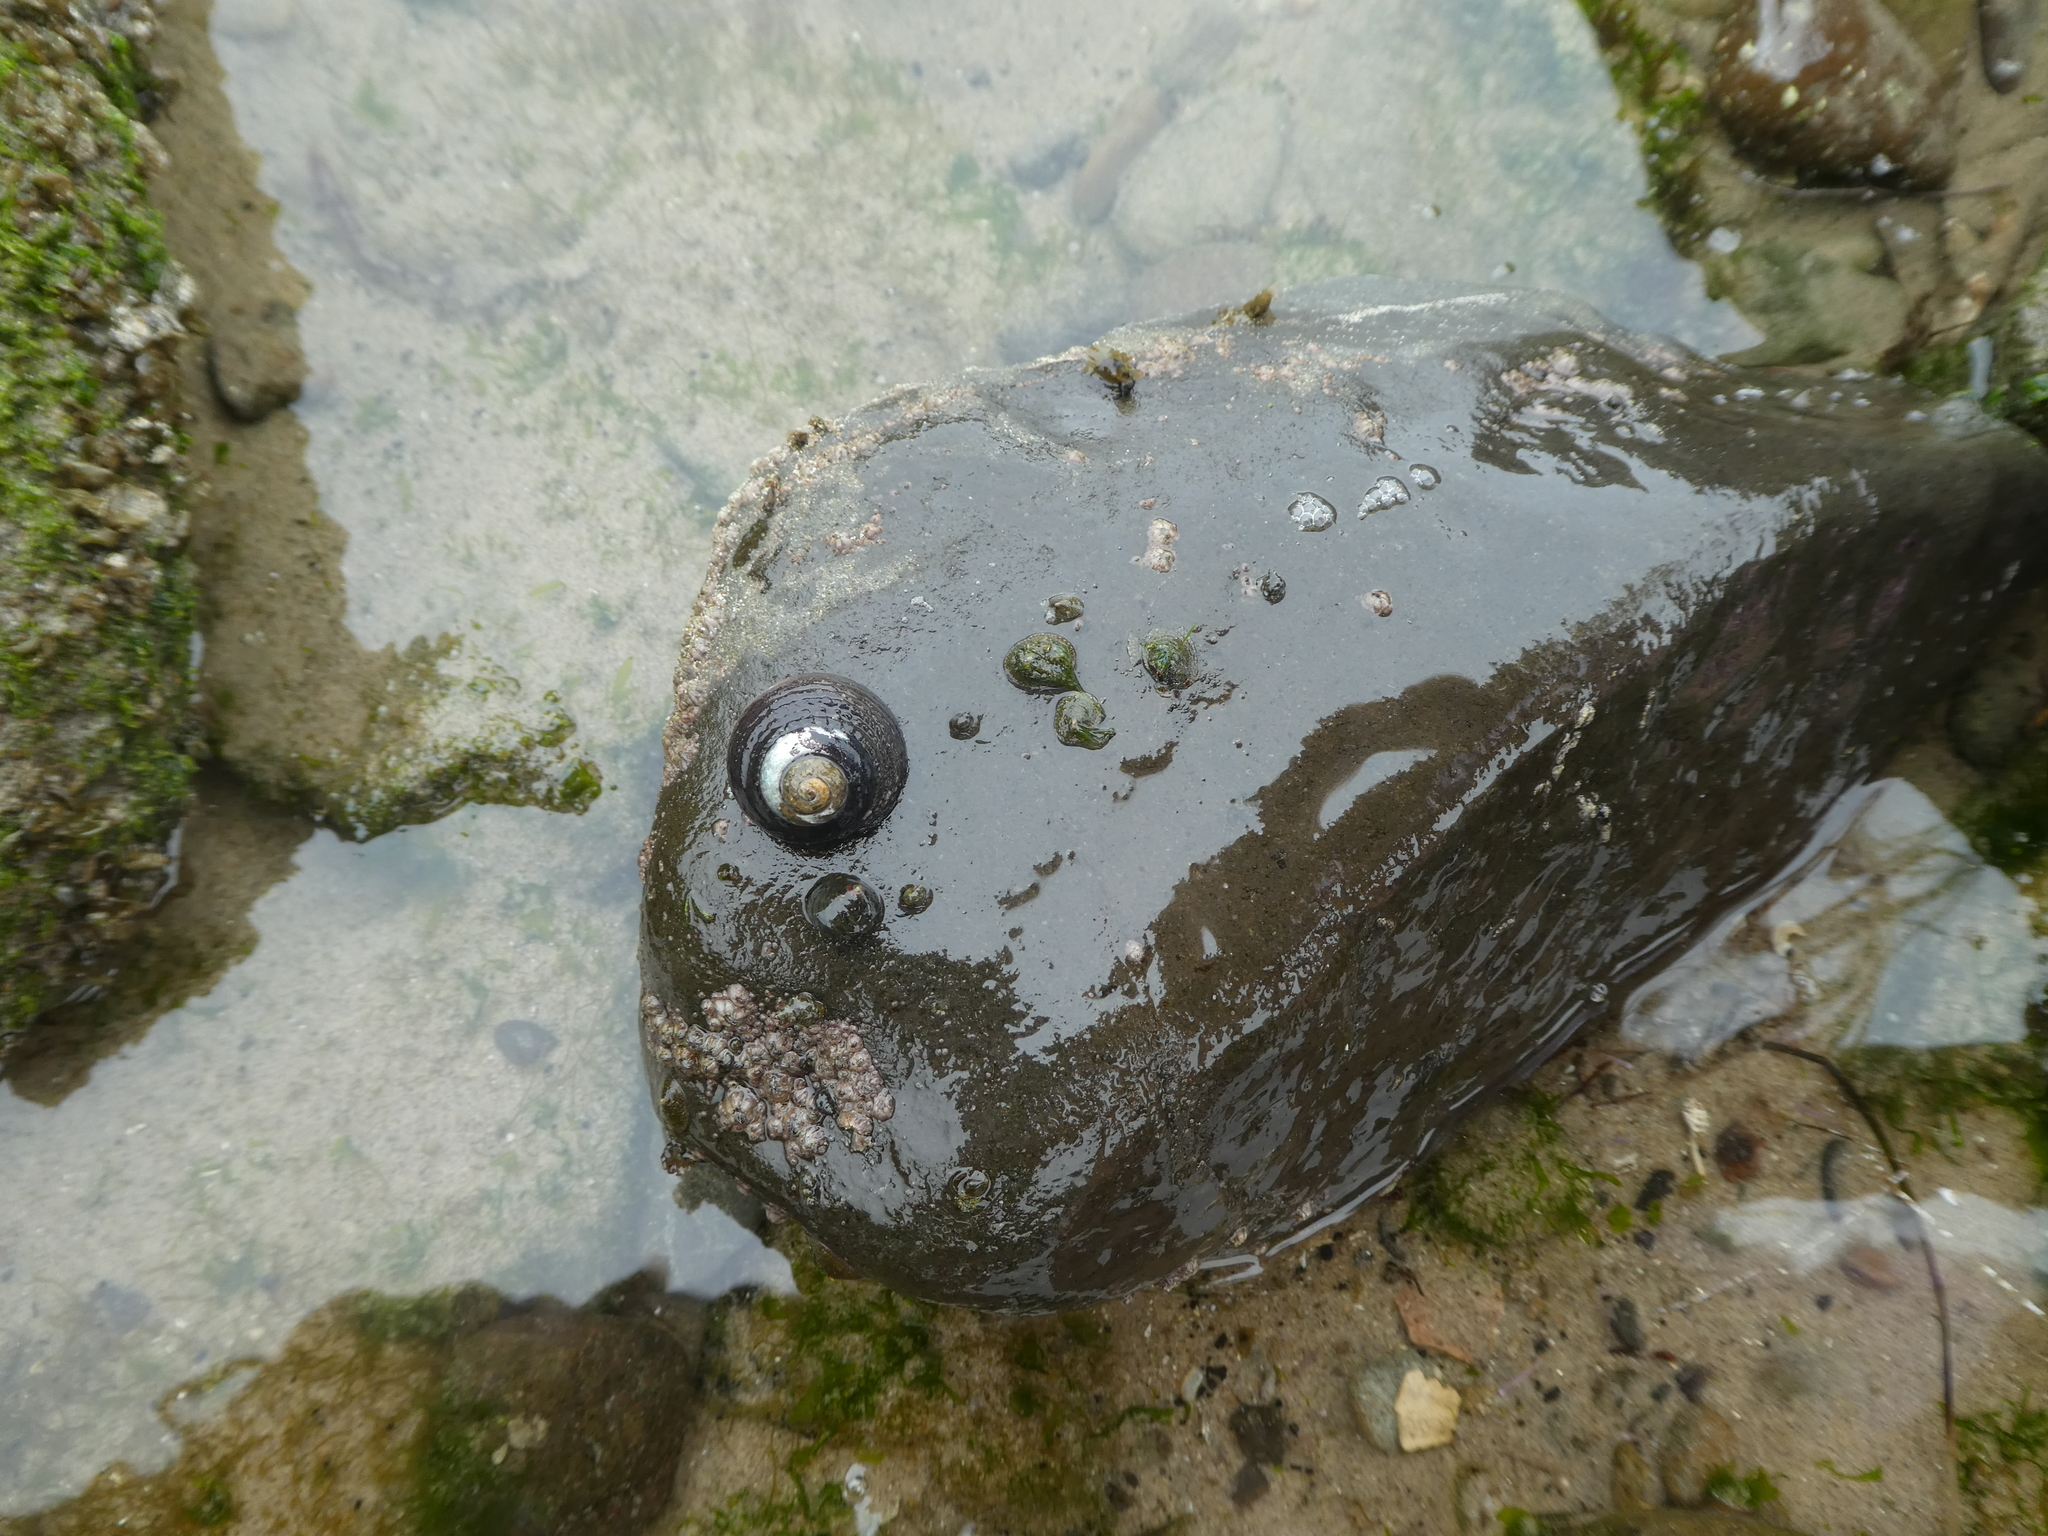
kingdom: Animalia
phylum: Mollusca
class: Gastropoda
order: Trochida
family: Tegulidae
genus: Tegula
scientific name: Tegula funebralis
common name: Black tegula
